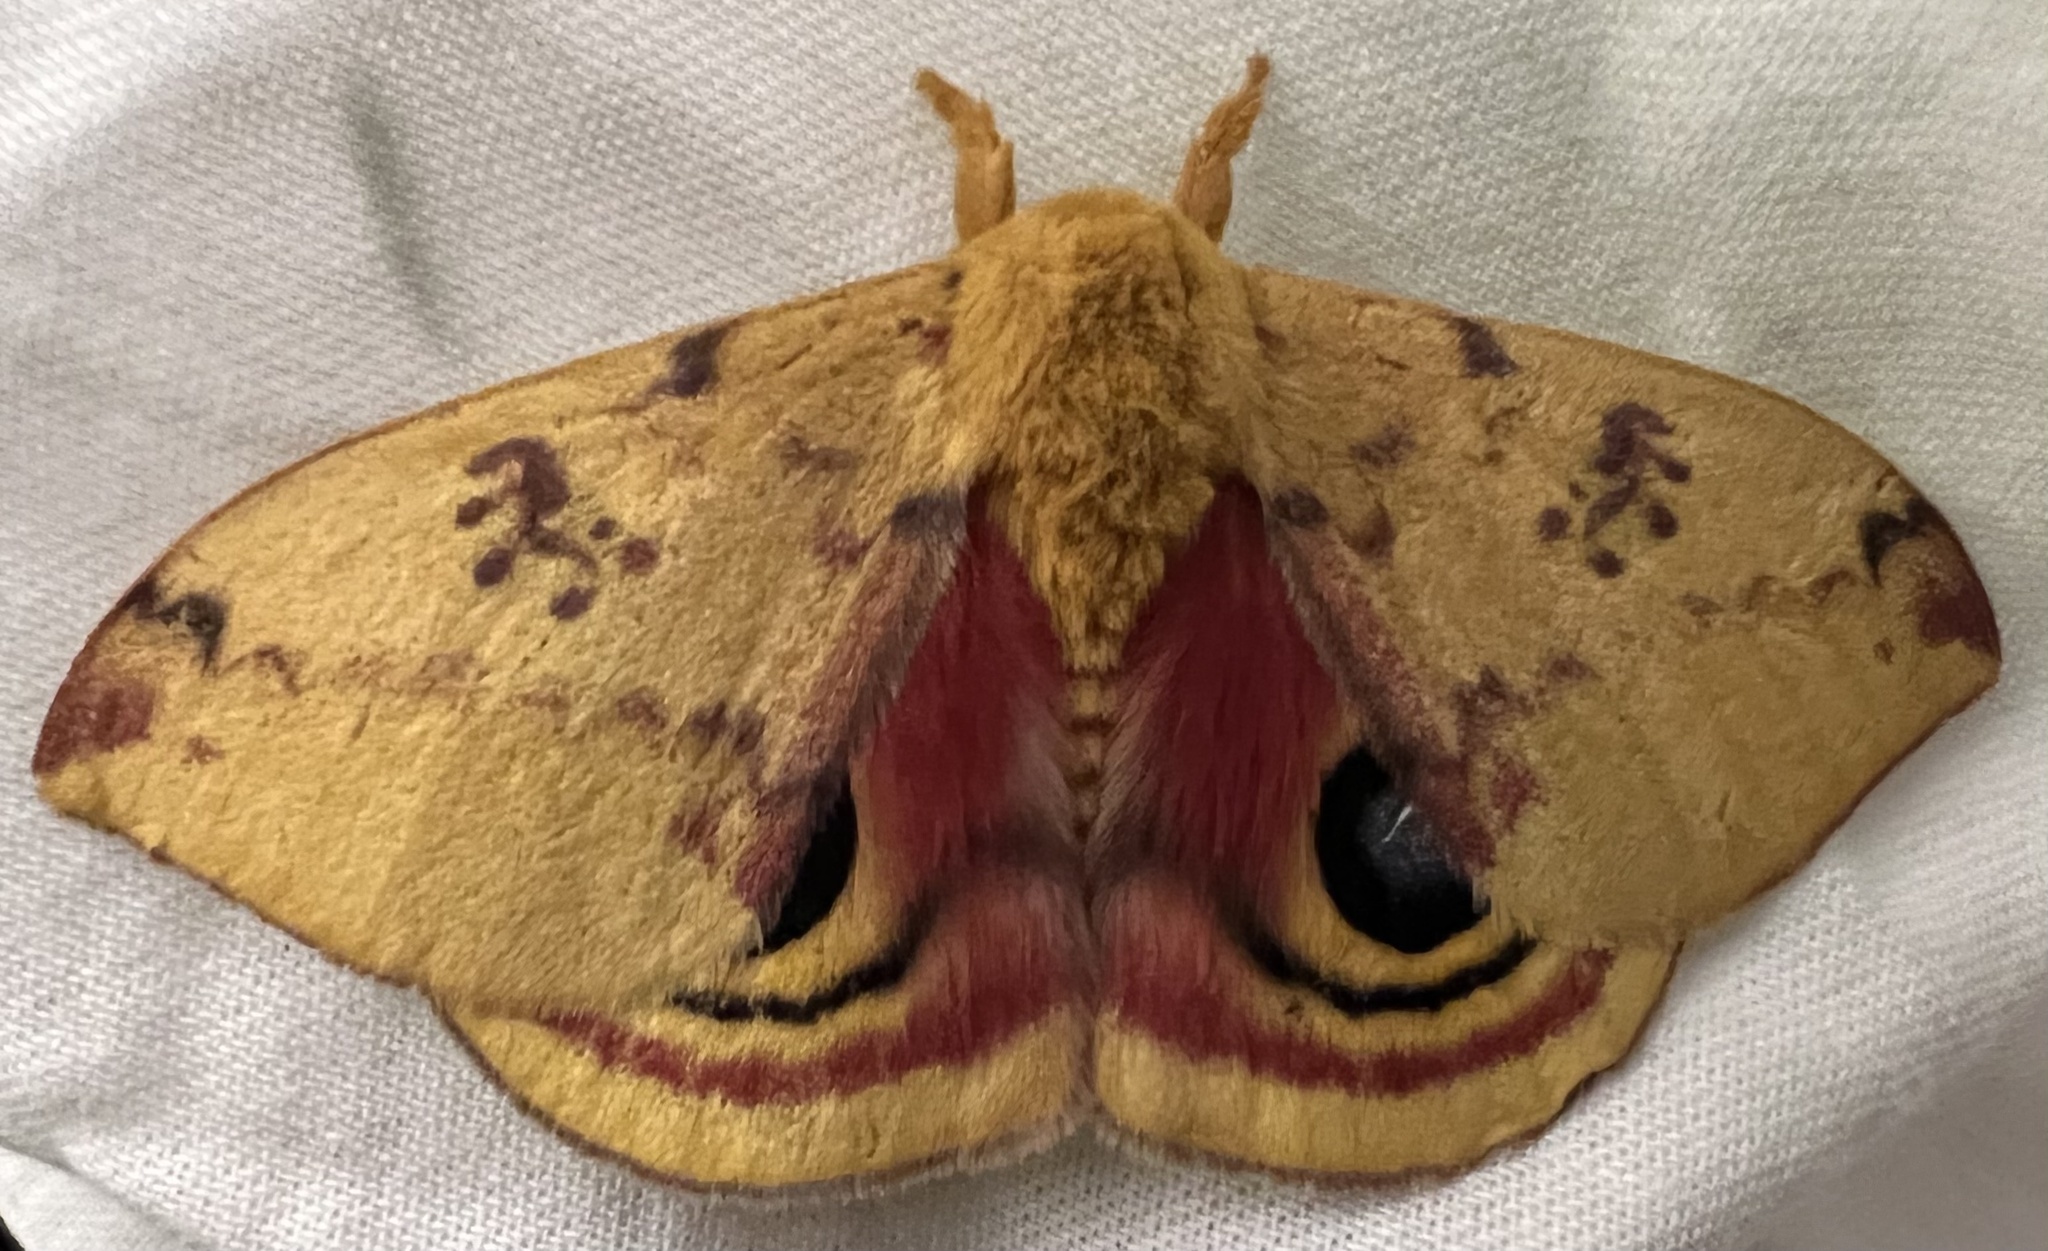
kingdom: Animalia
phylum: Arthropoda
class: Insecta
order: Lepidoptera
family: Saturniidae
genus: Automeris
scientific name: Automeris io
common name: Io moth
